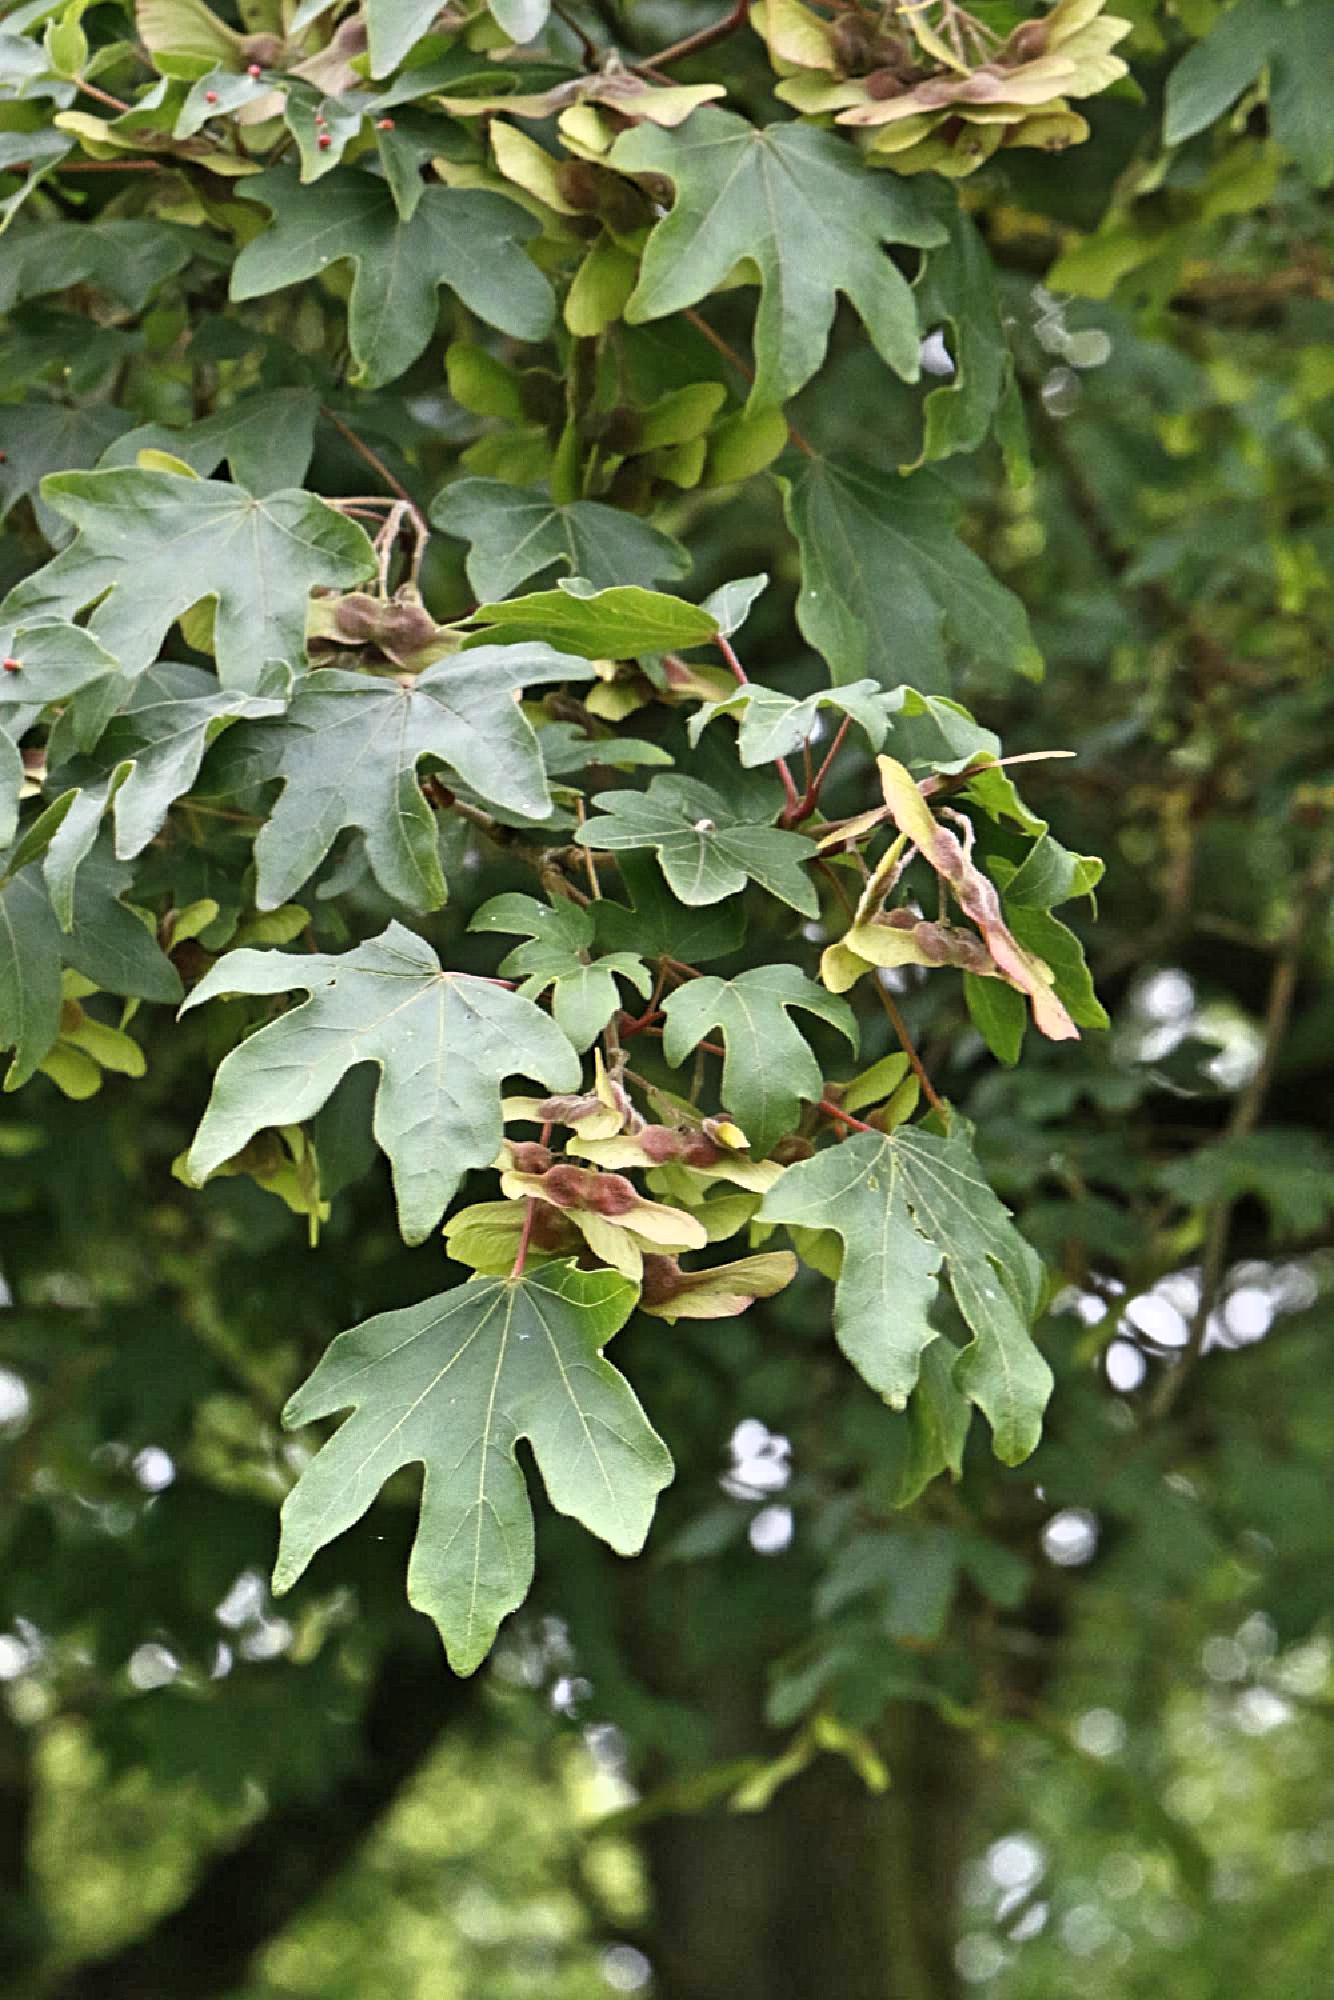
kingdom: Plantae
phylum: Tracheophyta
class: Magnoliopsida
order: Sapindales
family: Sapindaceae
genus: Acer
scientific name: Acer campestre
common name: Field maple
